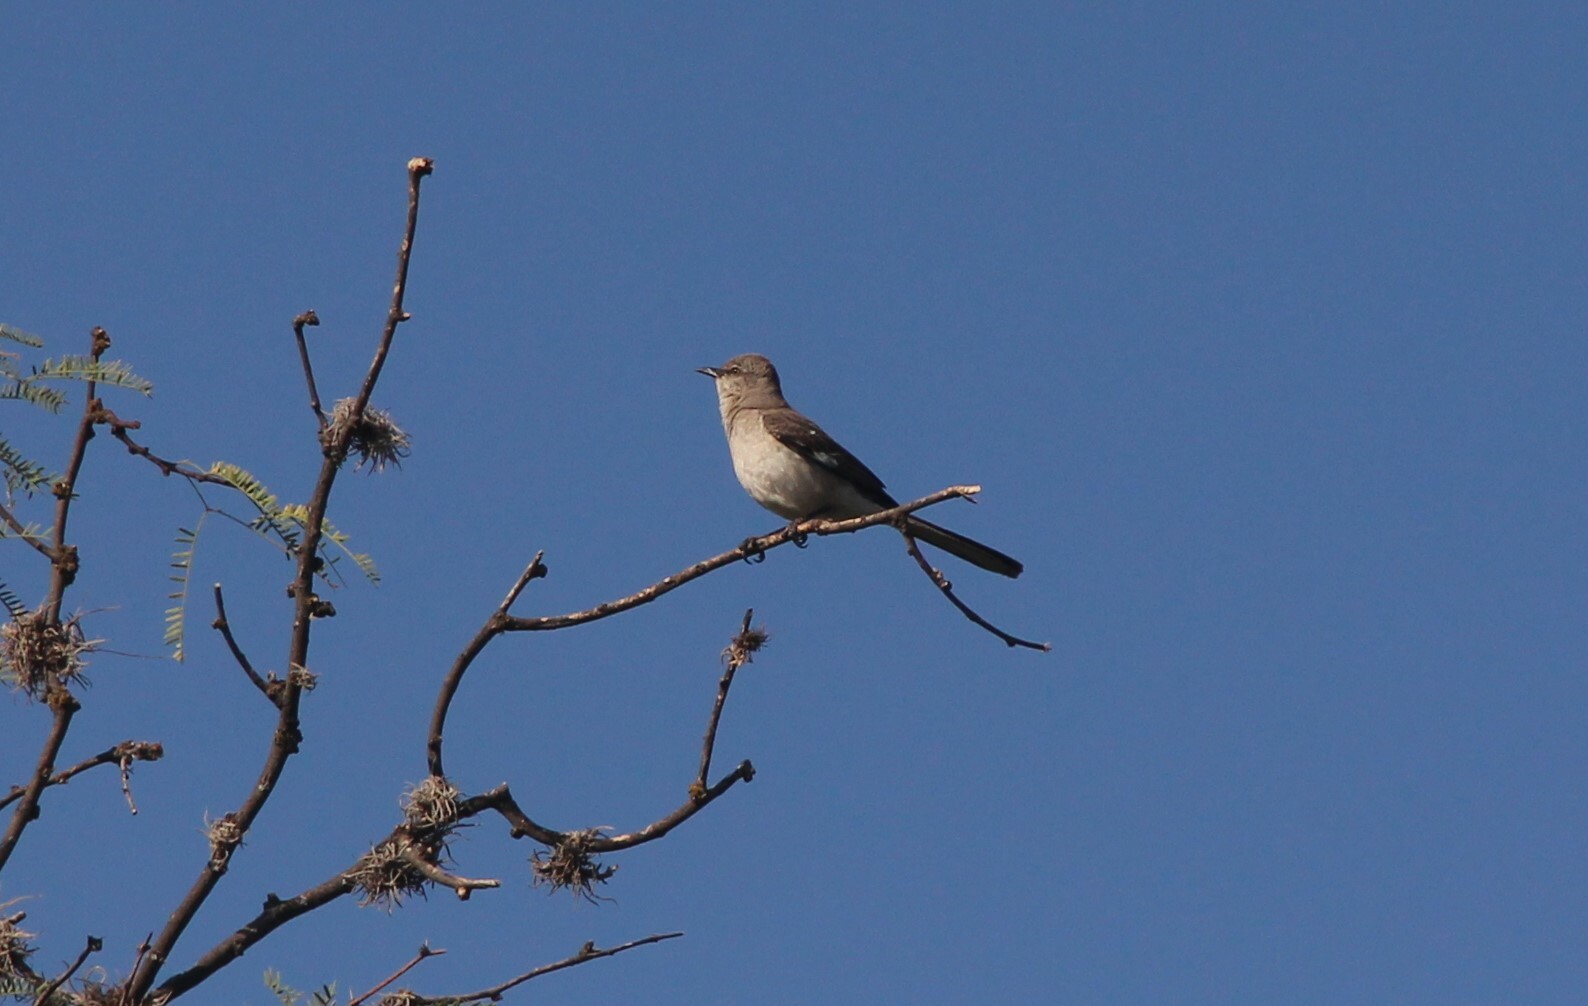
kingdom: Animalia
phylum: Chordata
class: Aves
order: Passeriformes
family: Mimidae
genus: Mimus
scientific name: Mimus polyglottos
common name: Northern mockingbird
